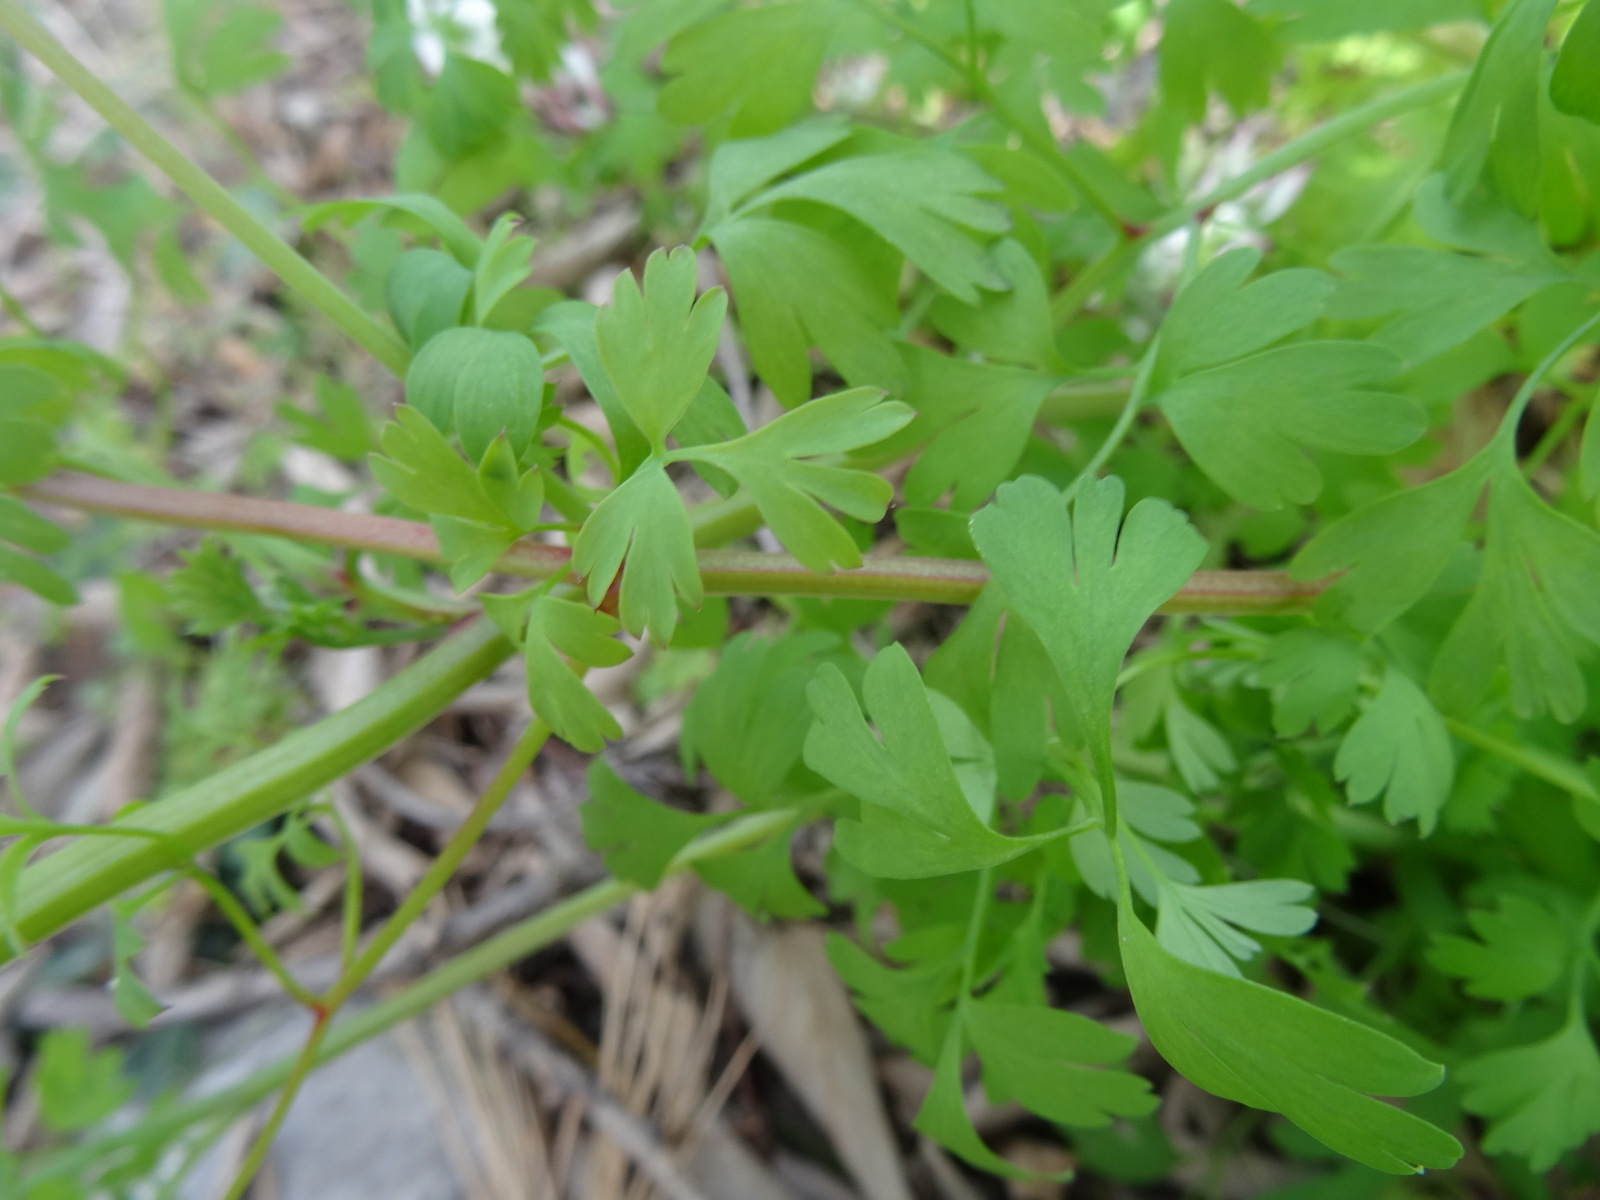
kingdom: Plantae
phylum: Tracheophyta
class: Magnoliopsida
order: Ranunculales
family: Papaveraceae
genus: Fumaria
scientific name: Fumaria capreolata
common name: White ramping-fumitory
